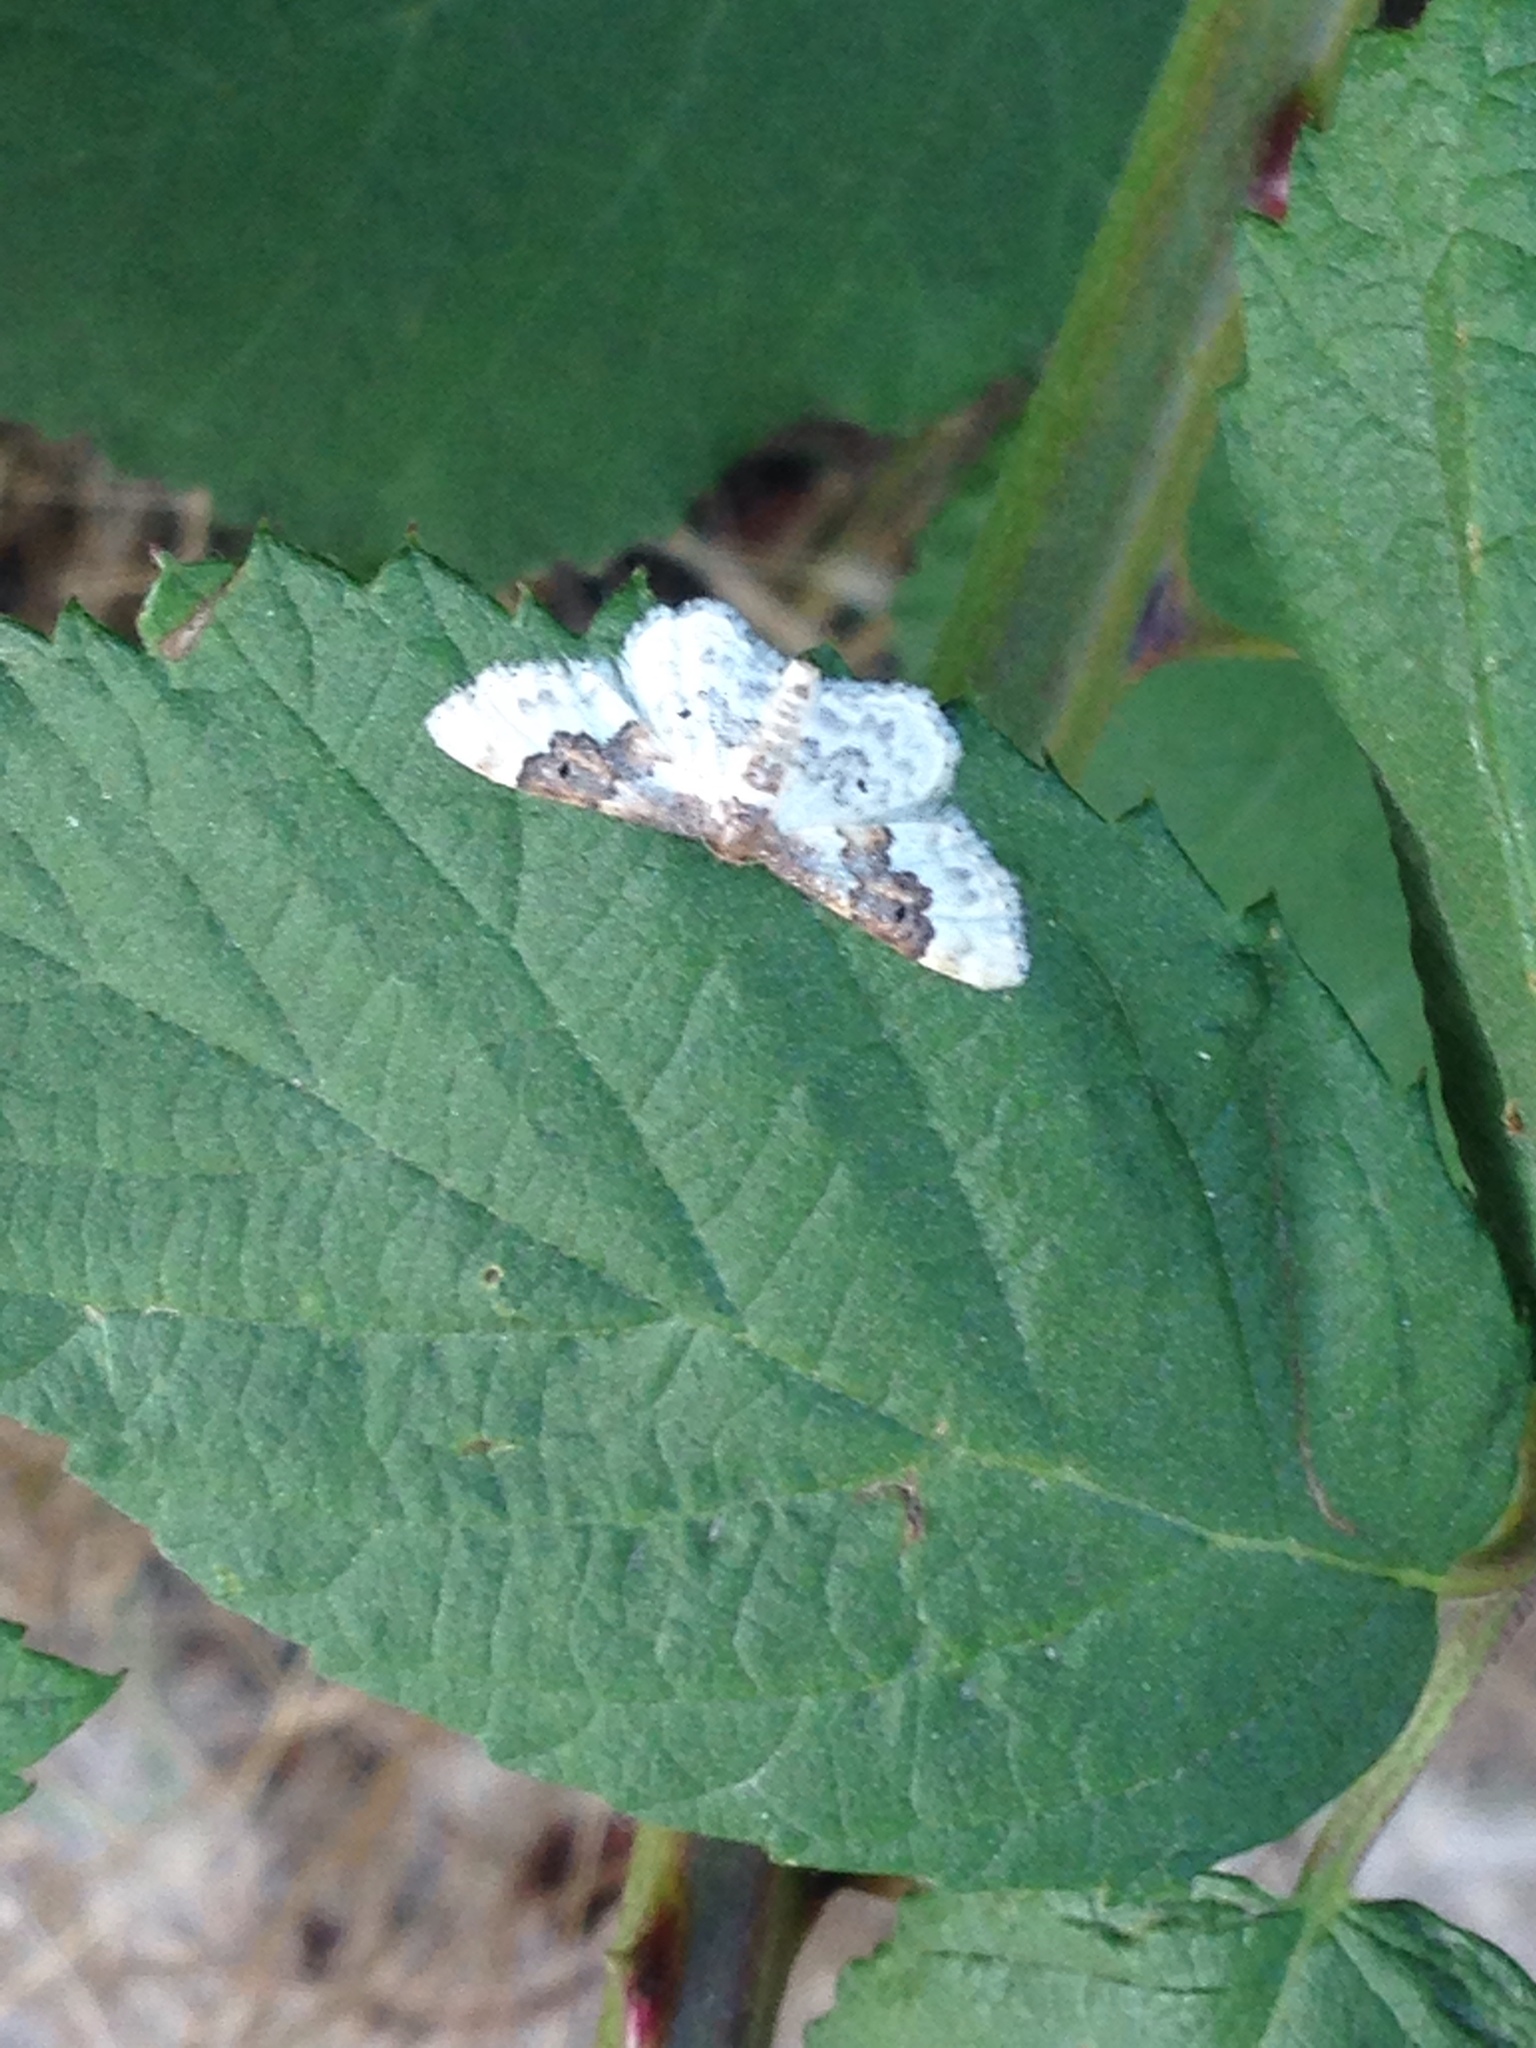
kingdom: Animalia
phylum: Arthropoda
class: Insecta
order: Lepidoptera
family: Geometridae
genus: Idaea
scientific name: Idaea rusticata
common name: Least carpet
